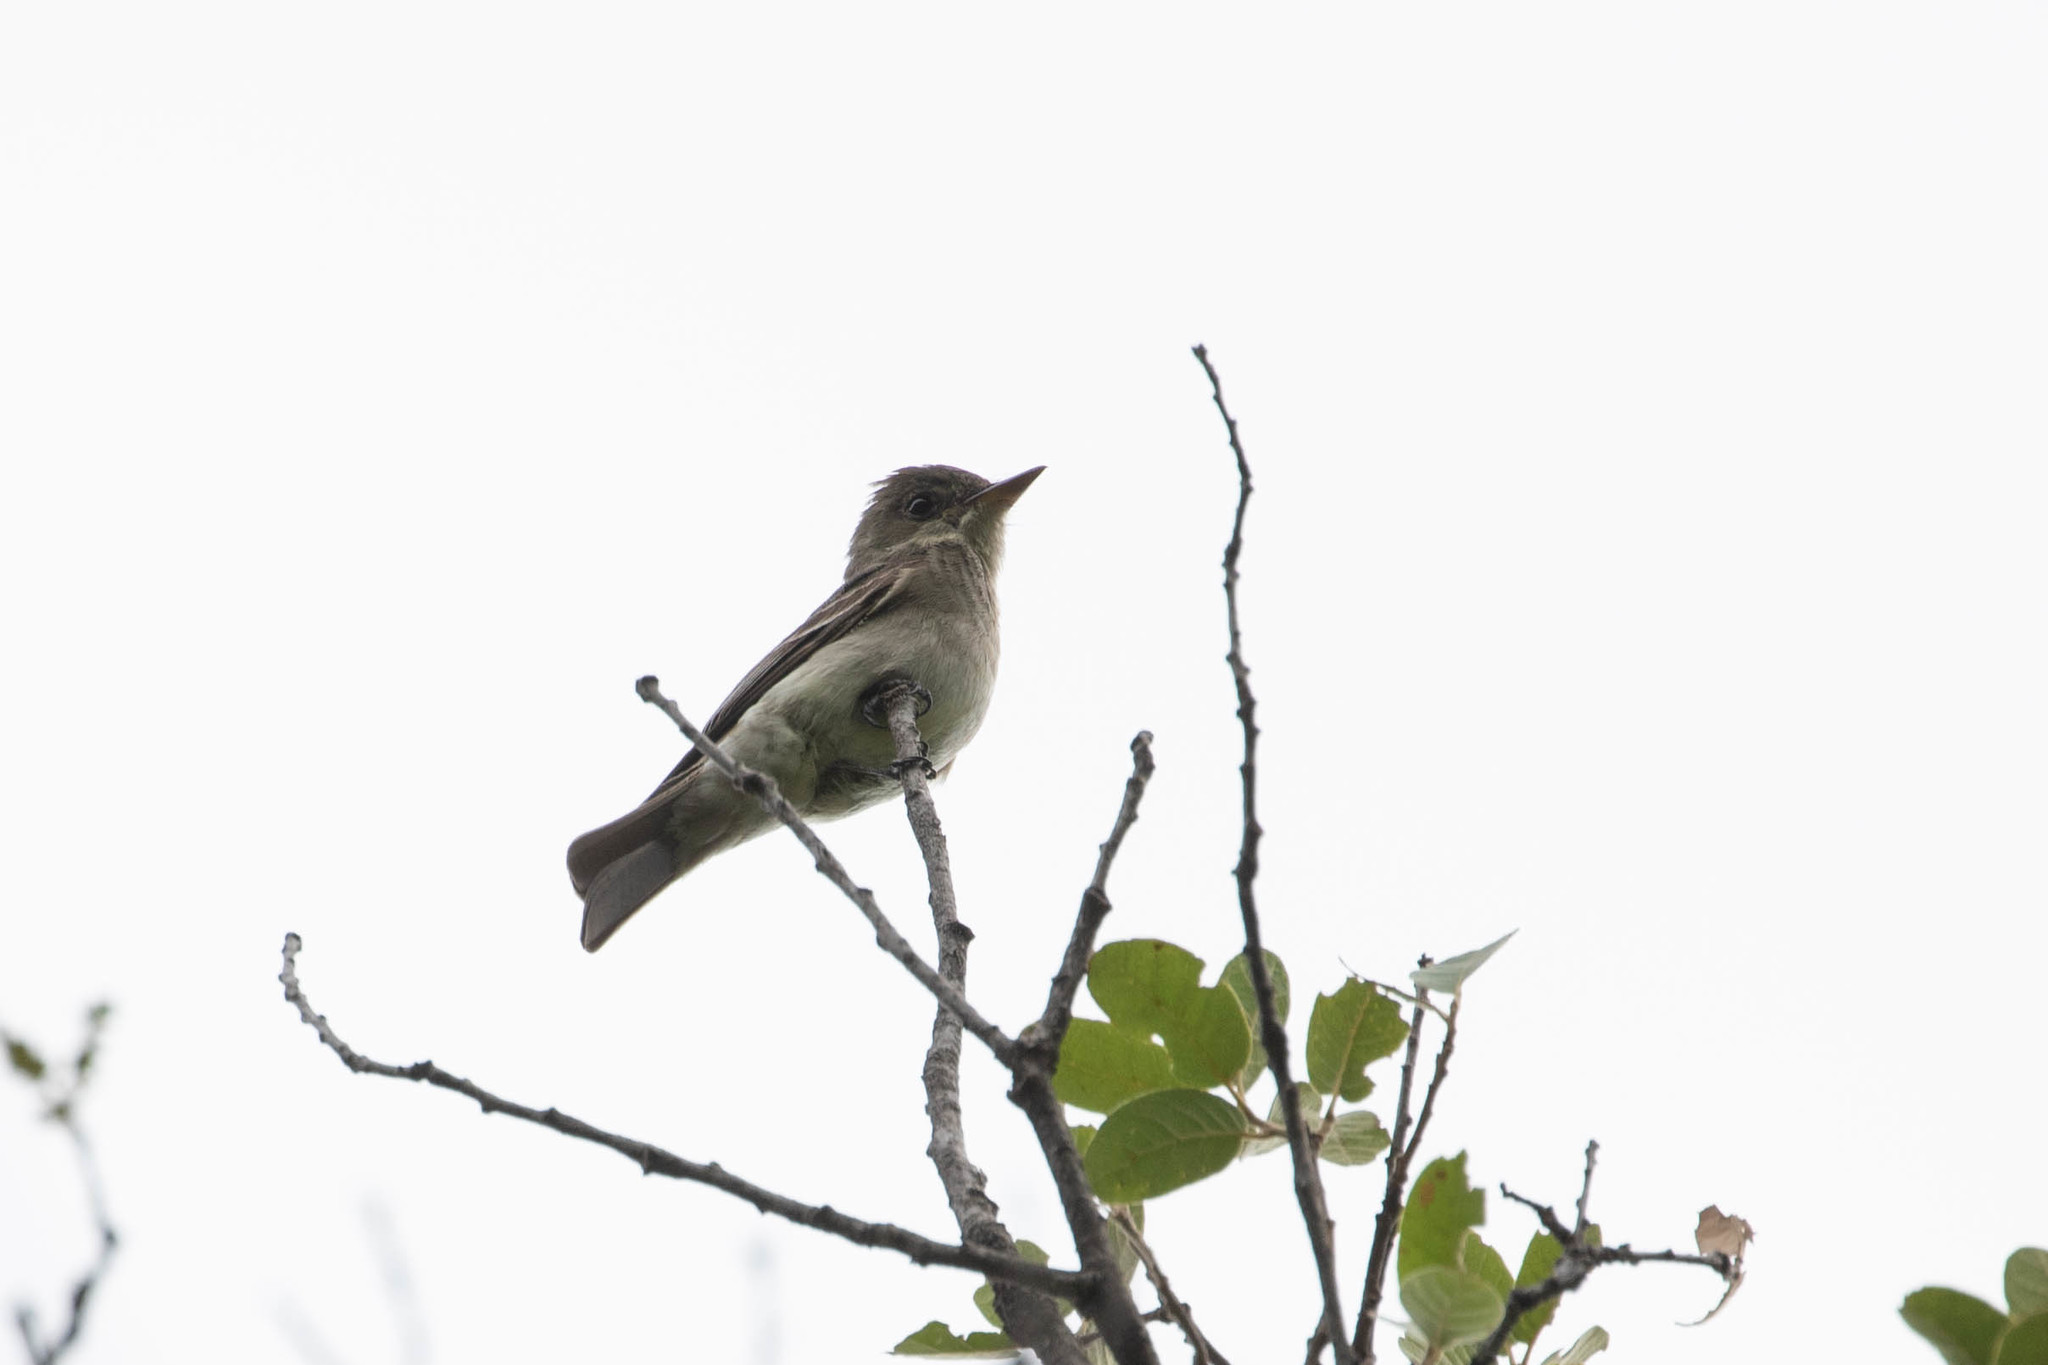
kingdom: Animalia
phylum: Chordata
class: Aves
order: Passeriformes
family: Tyrannidae
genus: Contopus
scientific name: Contopus sordidulus
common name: Western wood-pewee
